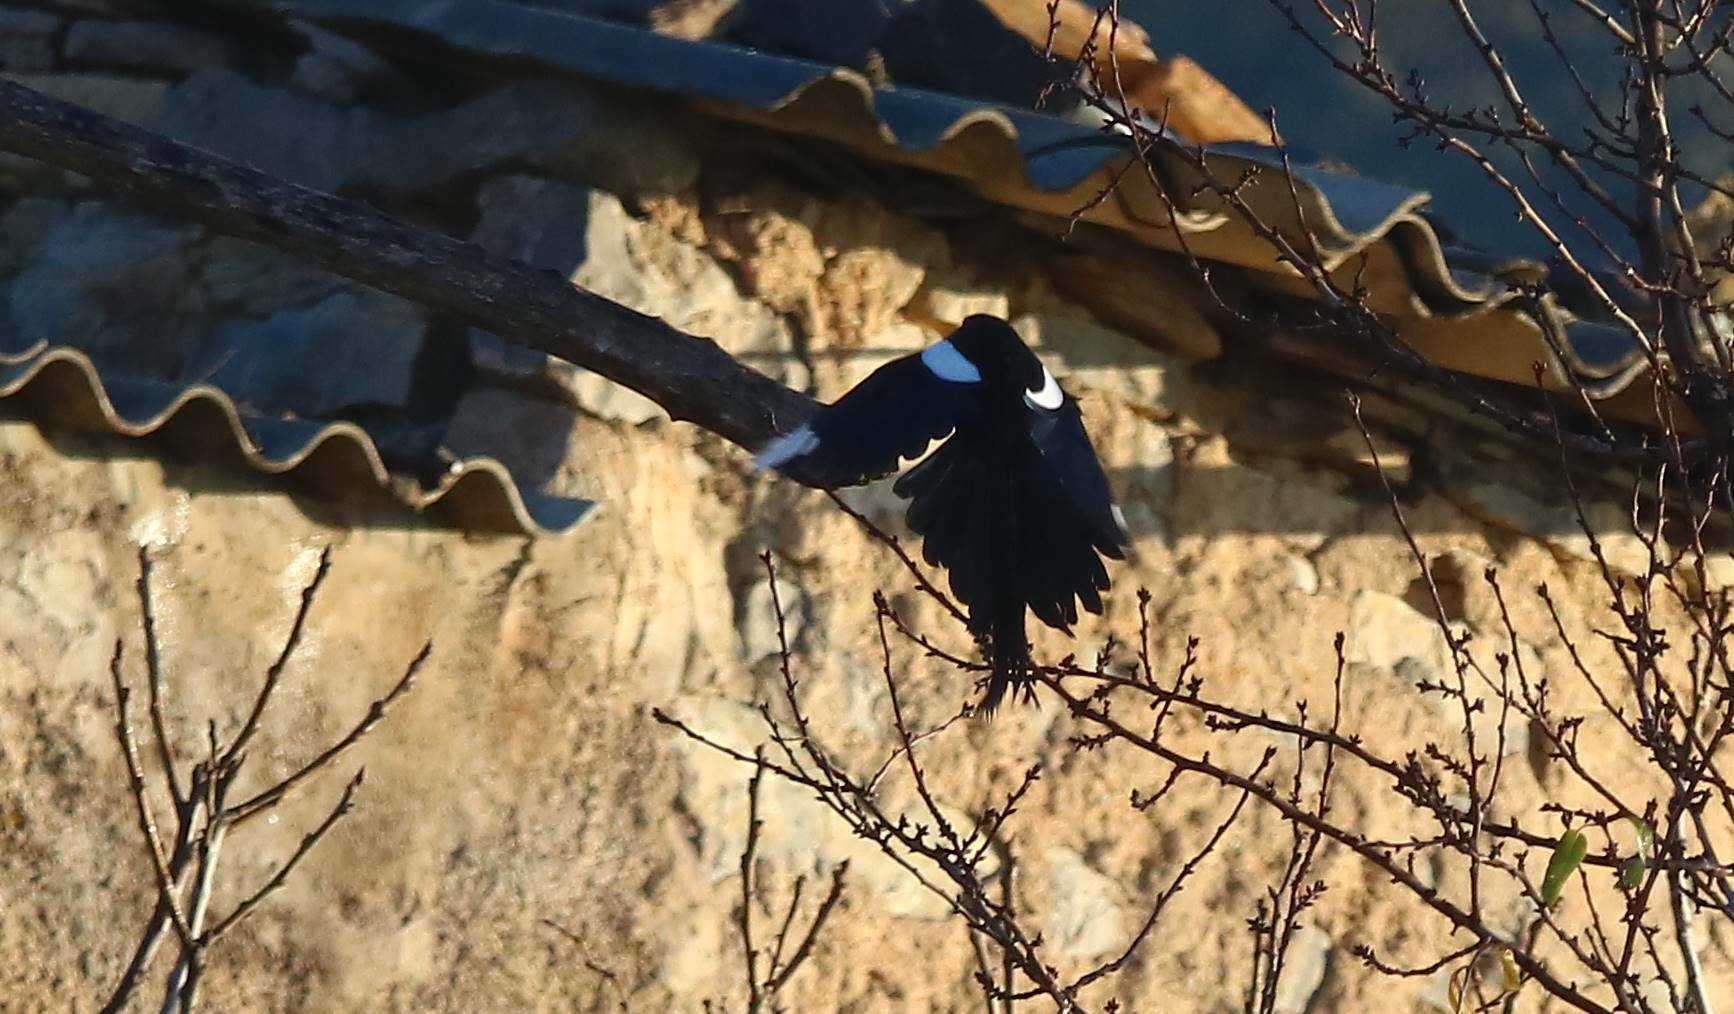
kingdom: Animalia
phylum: Chordata
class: Aves
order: Passeriformes
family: Corvidae
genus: Pica
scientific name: Pica mauritanica
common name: Maghreb magpie
